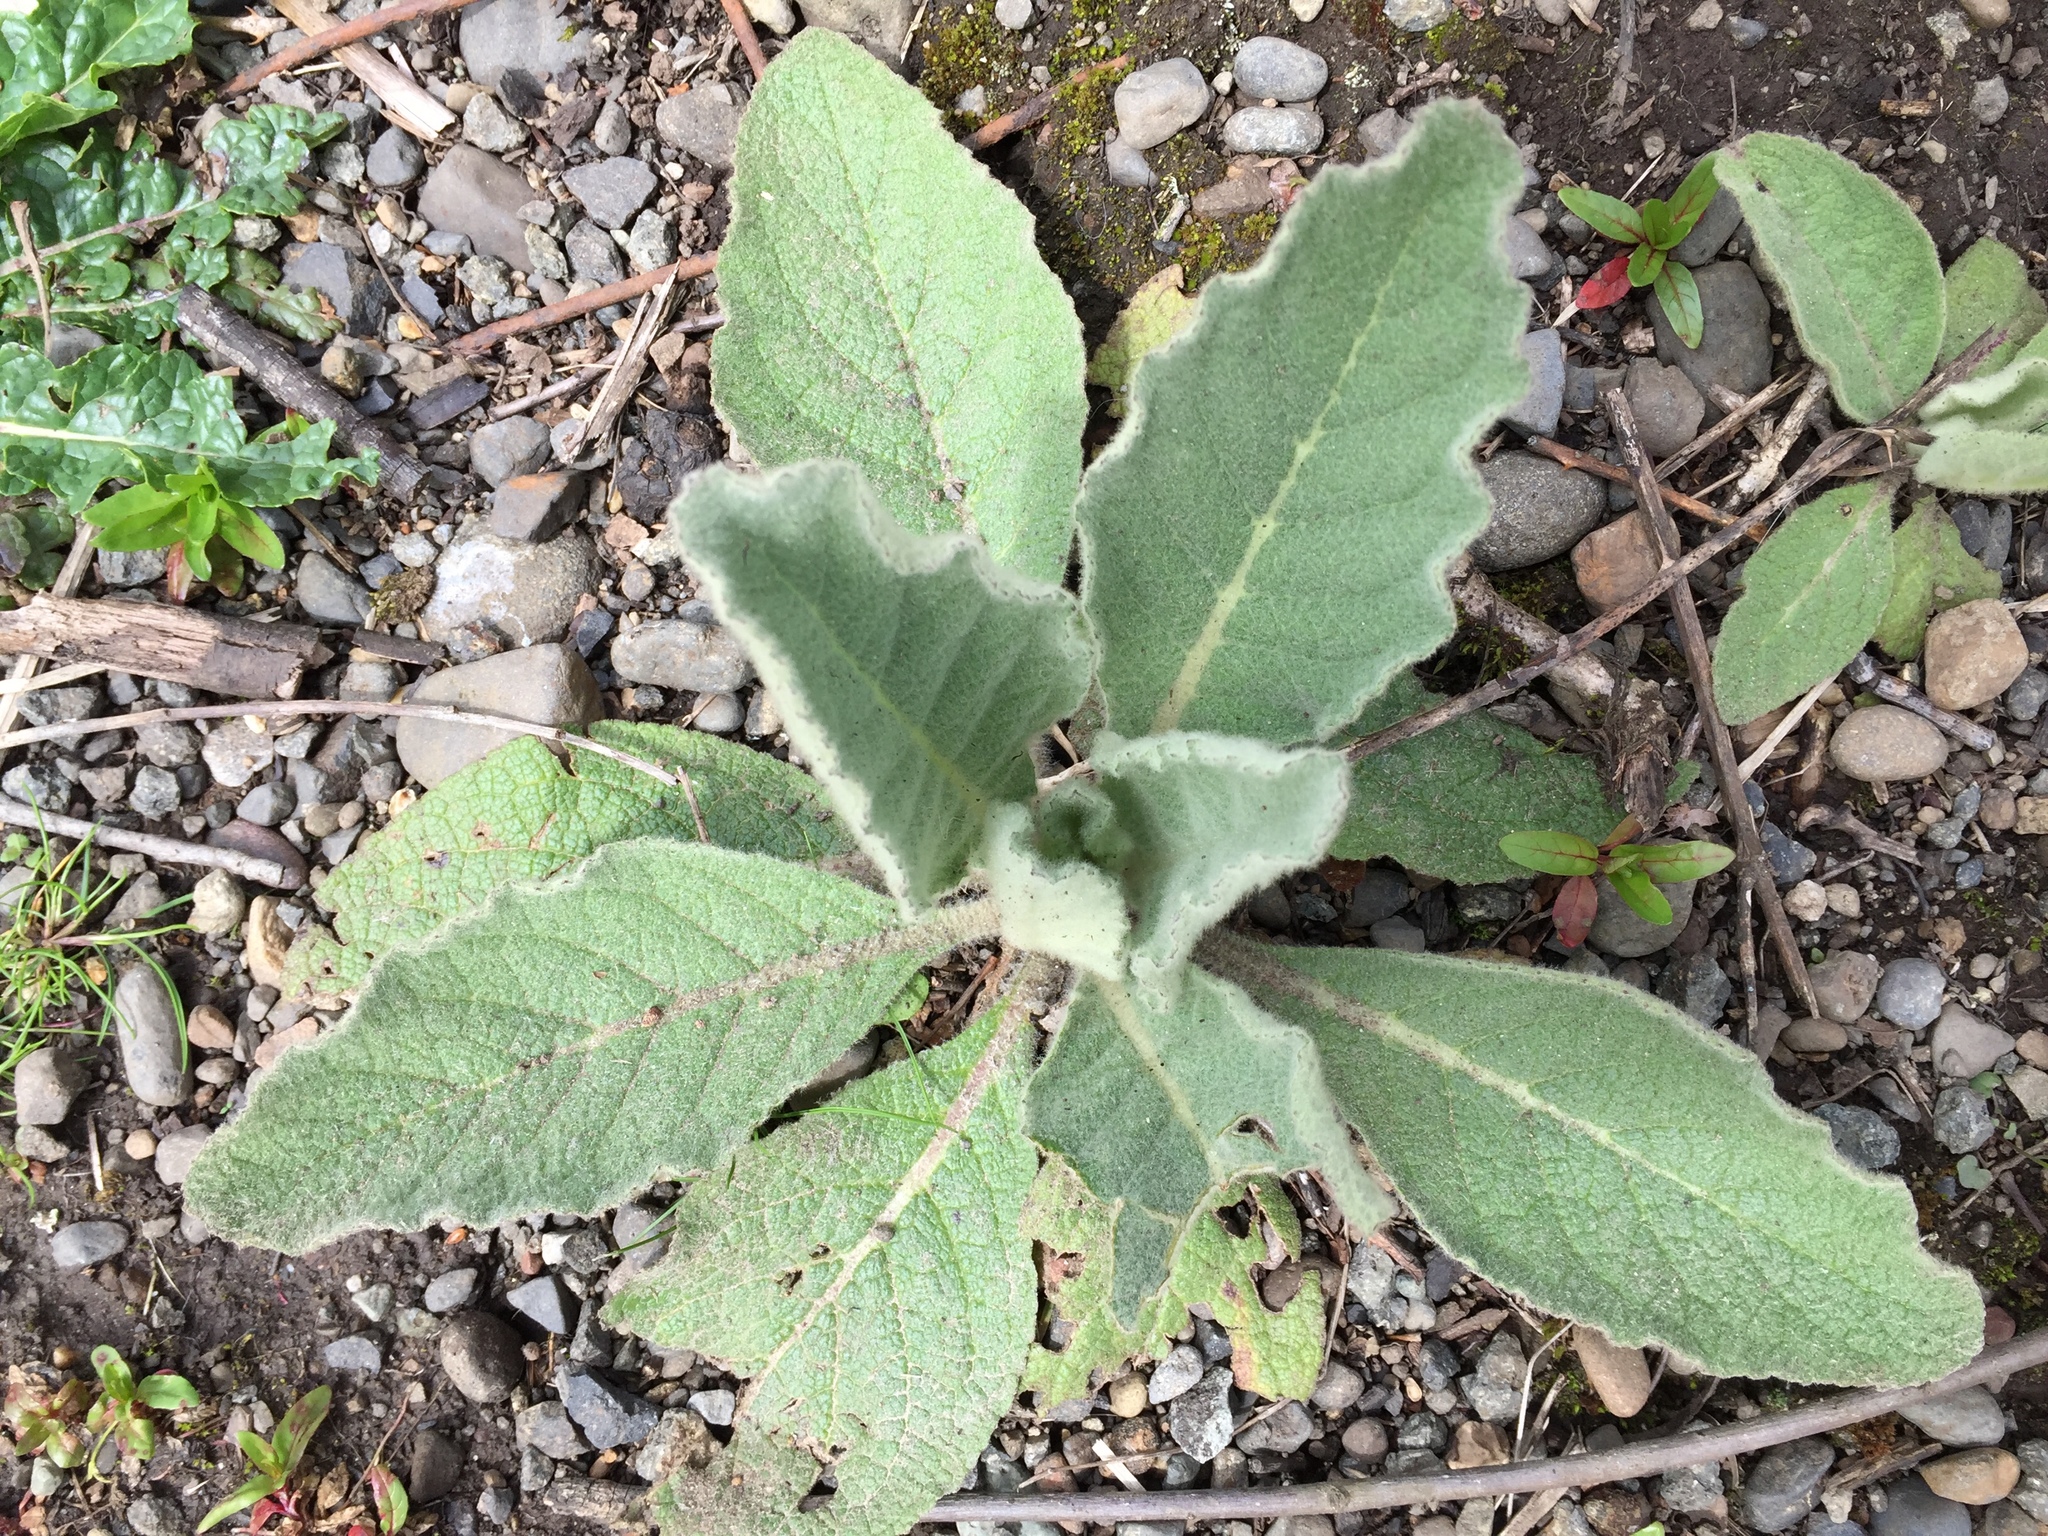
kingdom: Plantae
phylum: Tracheophyta
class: Magnoliopsida
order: Lamiales
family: Scrophulariaceae
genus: Verbascum
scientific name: Verbascum thapsus
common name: Common mullein
